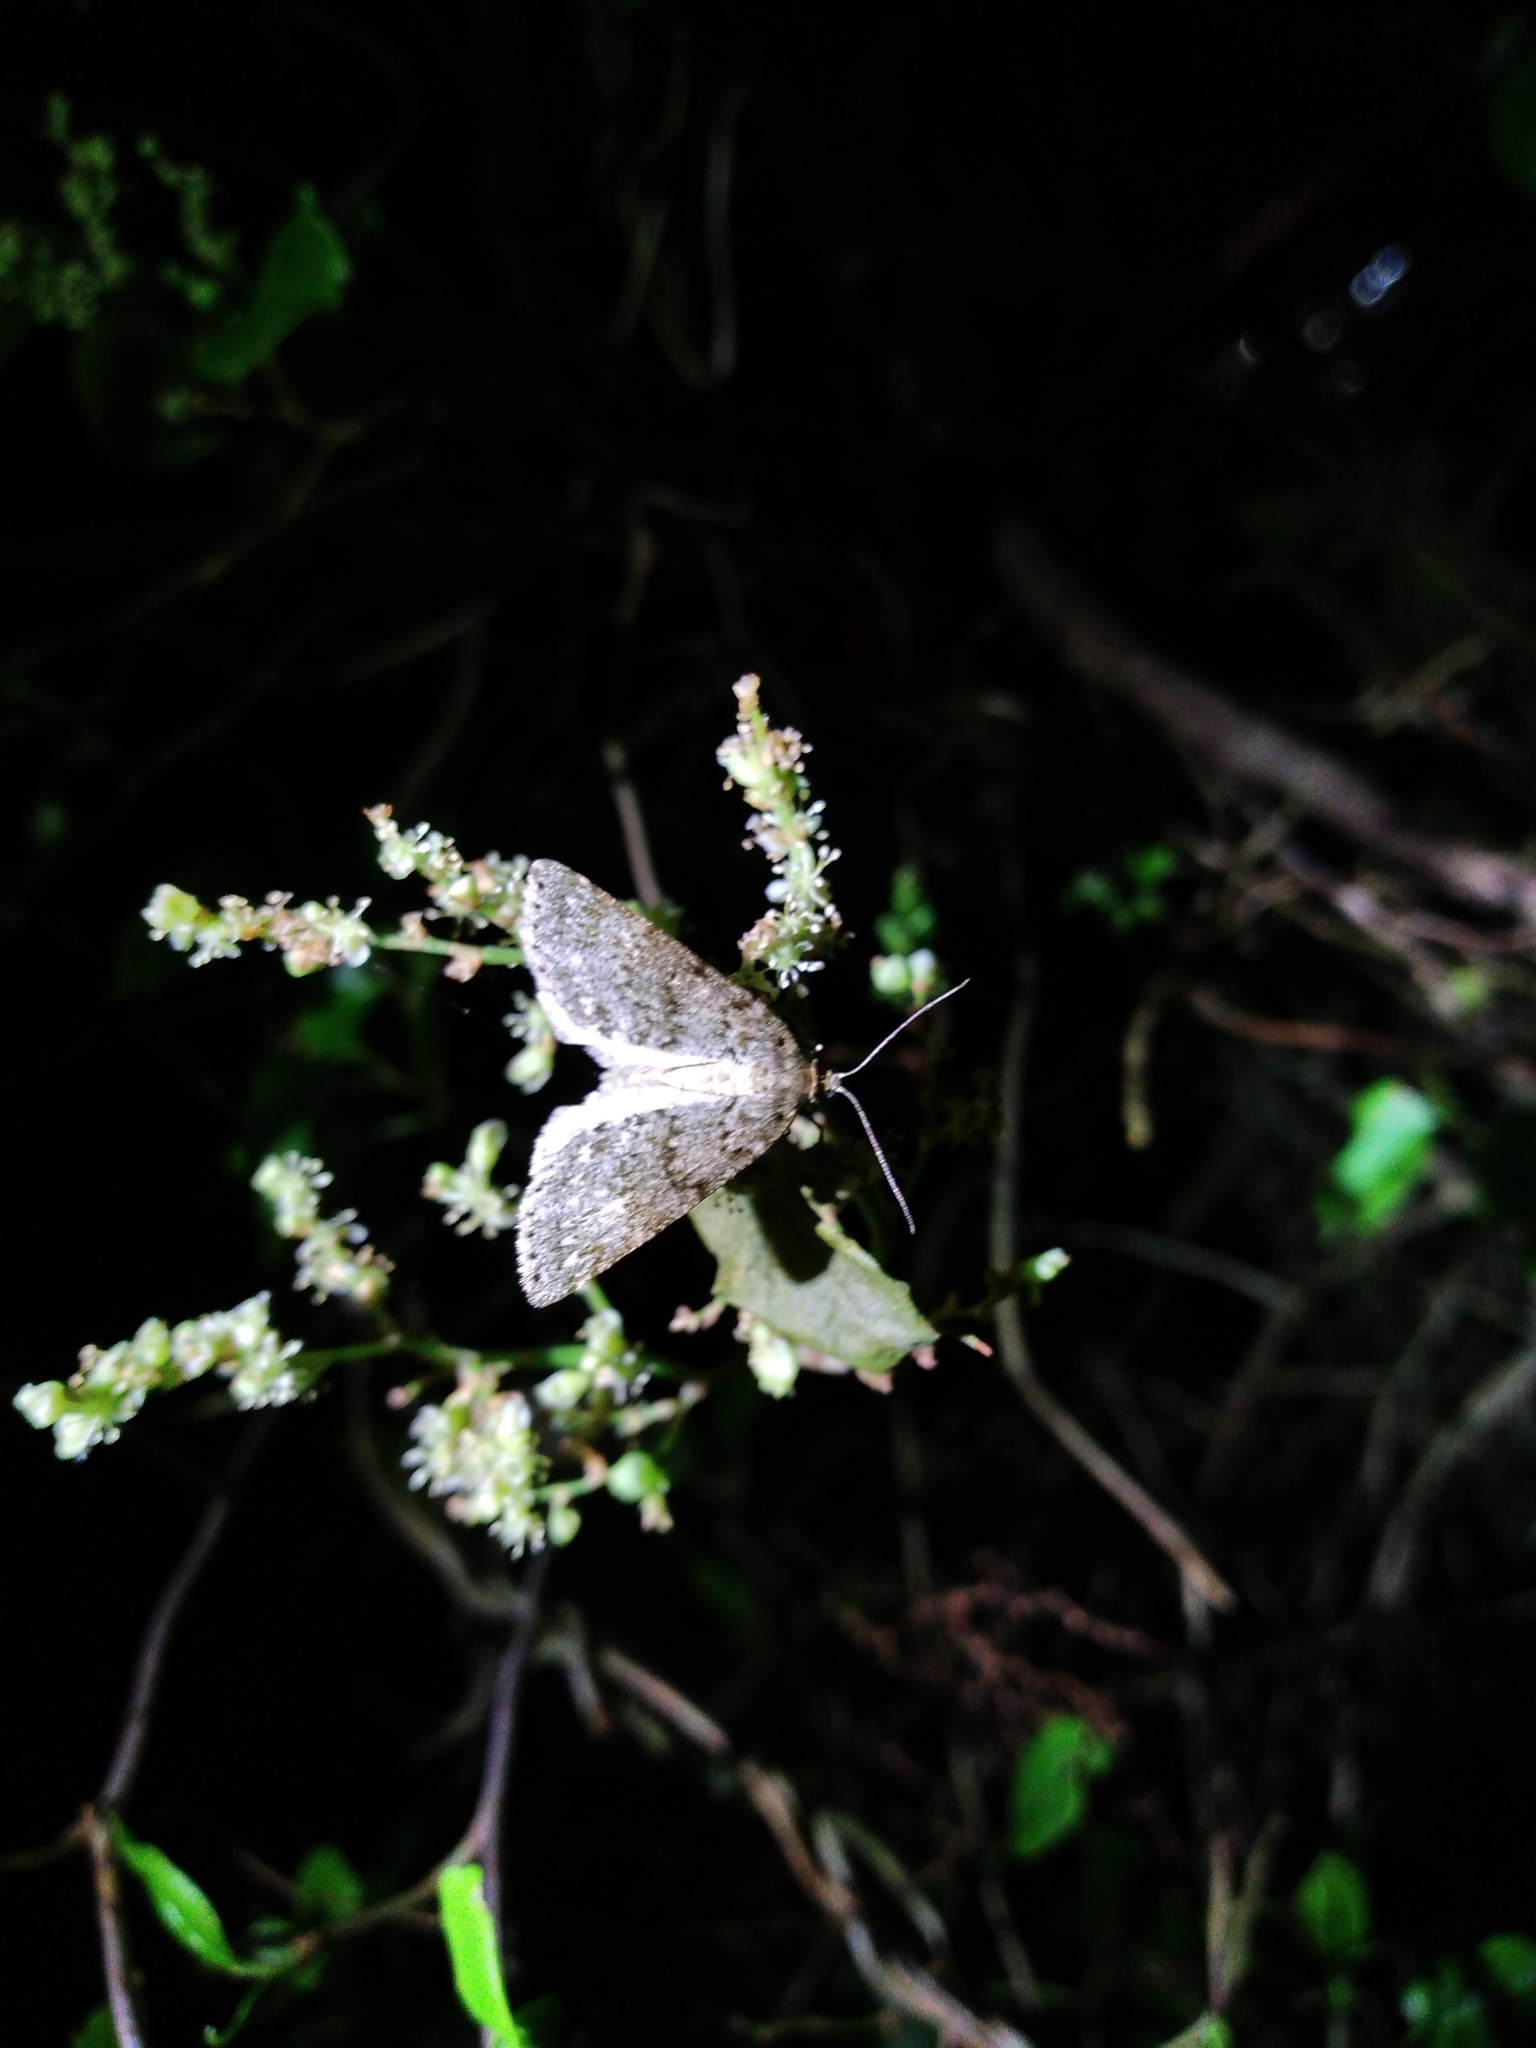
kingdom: Animalia
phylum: Arthropoda
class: Insecta
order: Lepidoptera
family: Geometridae
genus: Pseudocoremia
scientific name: Pseudocoremia fenerata
